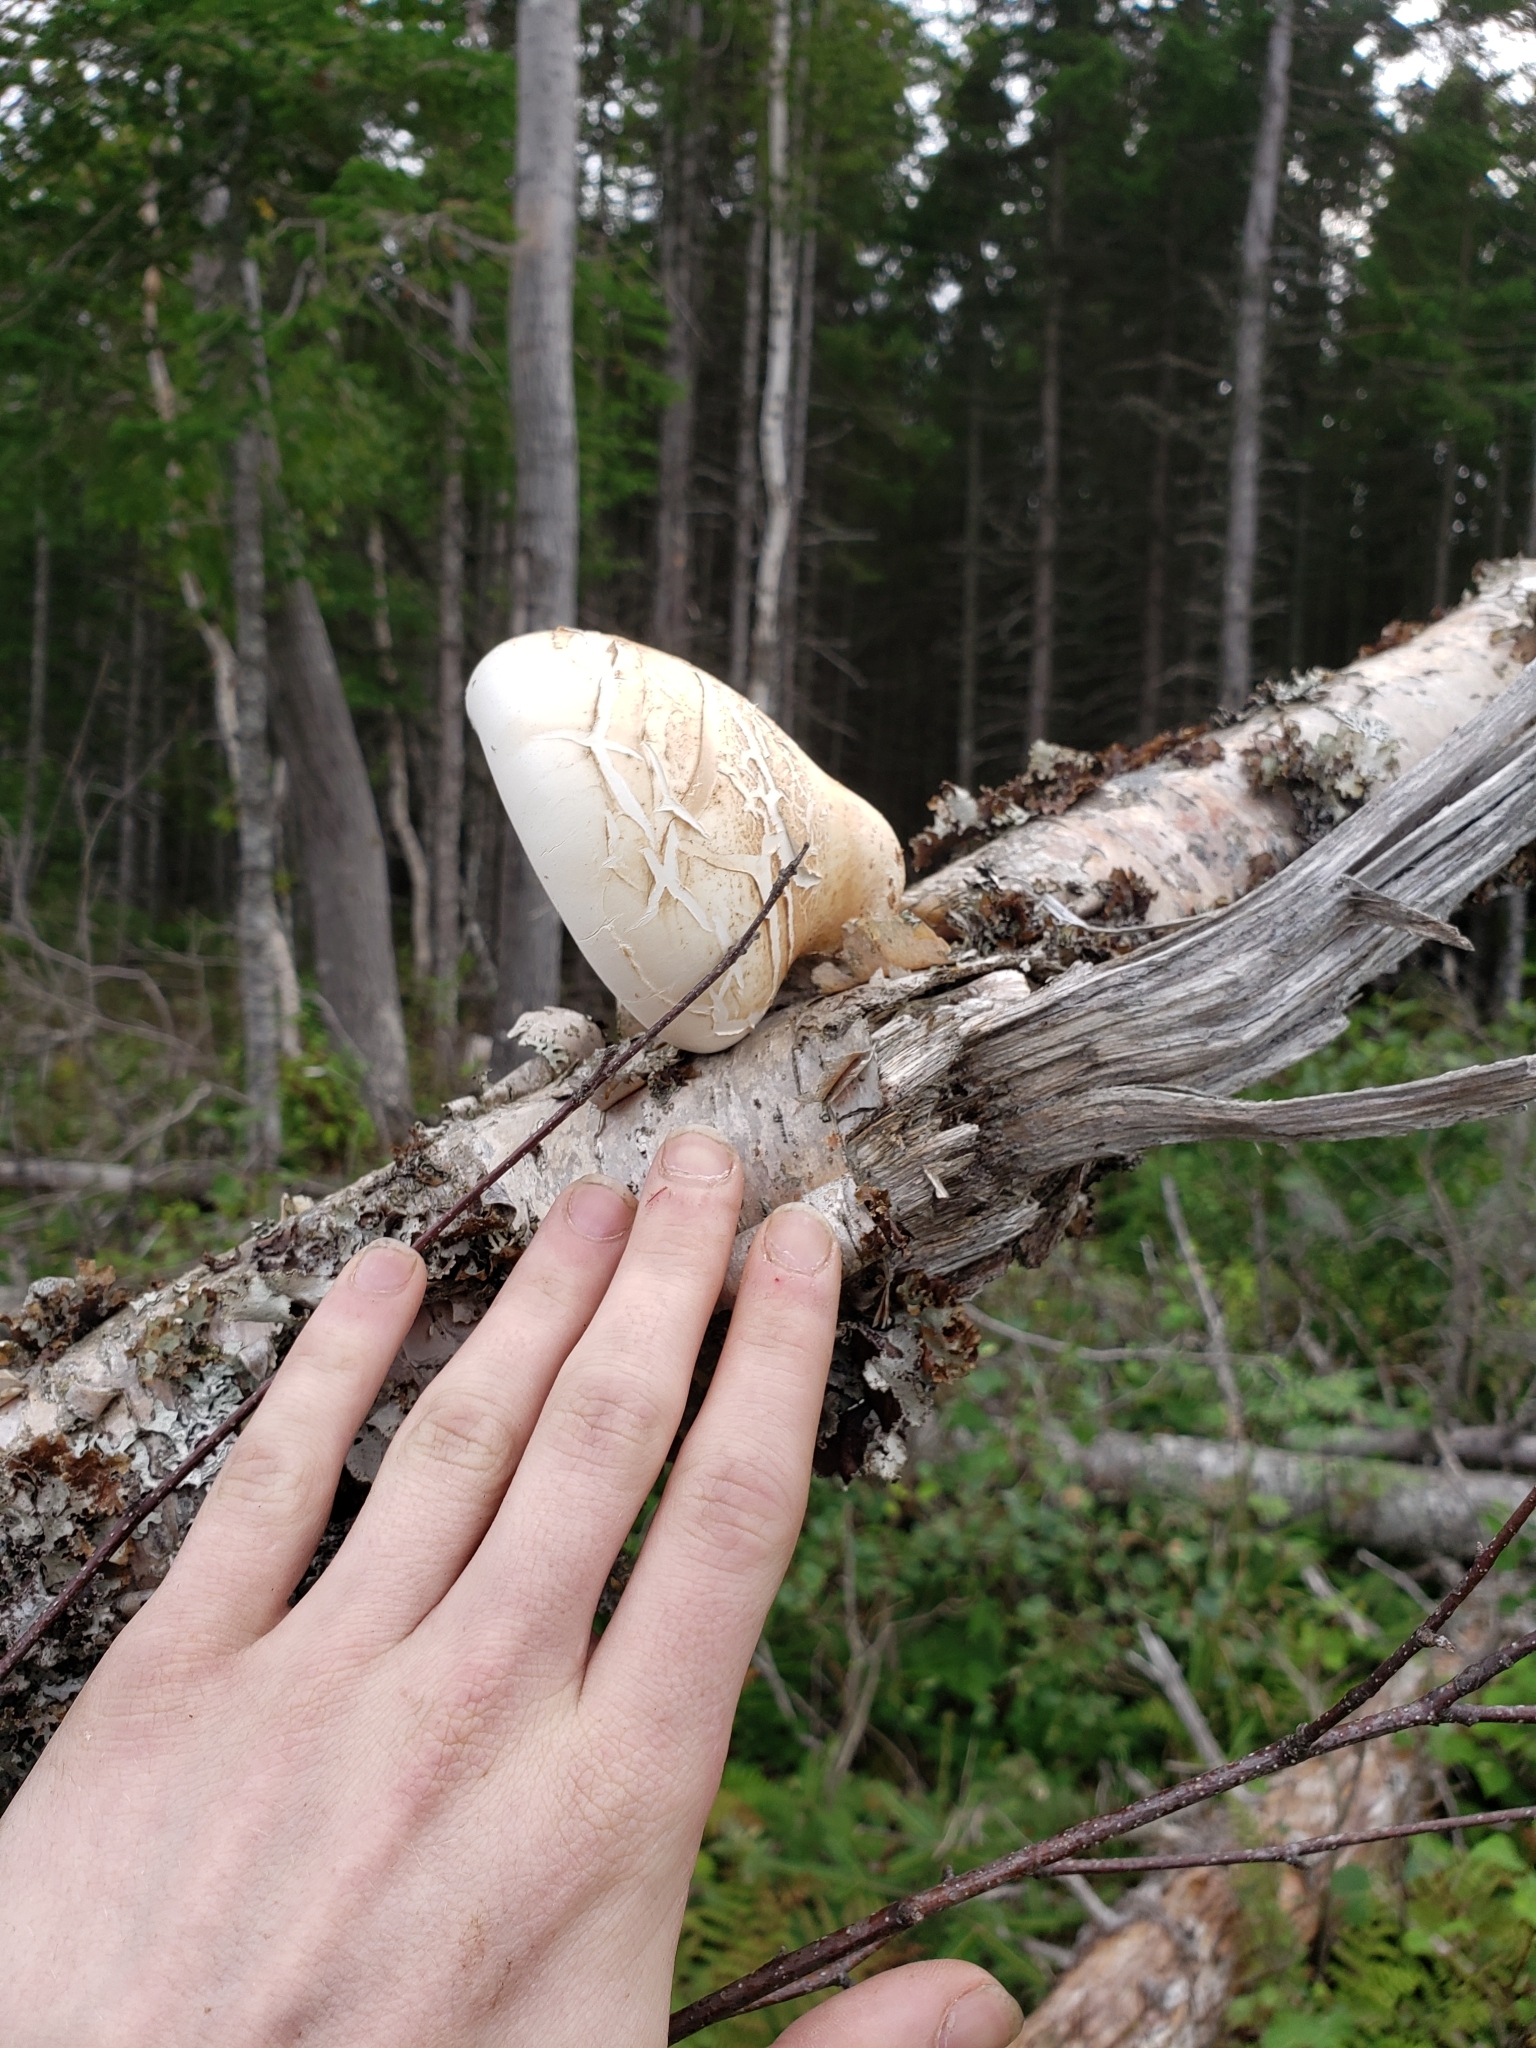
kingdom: Fungi
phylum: Basidiomycota
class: Agaricomycetes
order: Polyporales
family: Fomitopsidaceae
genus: Fomitopsis
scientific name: Fomitopsis betulina
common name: Birch polypore
